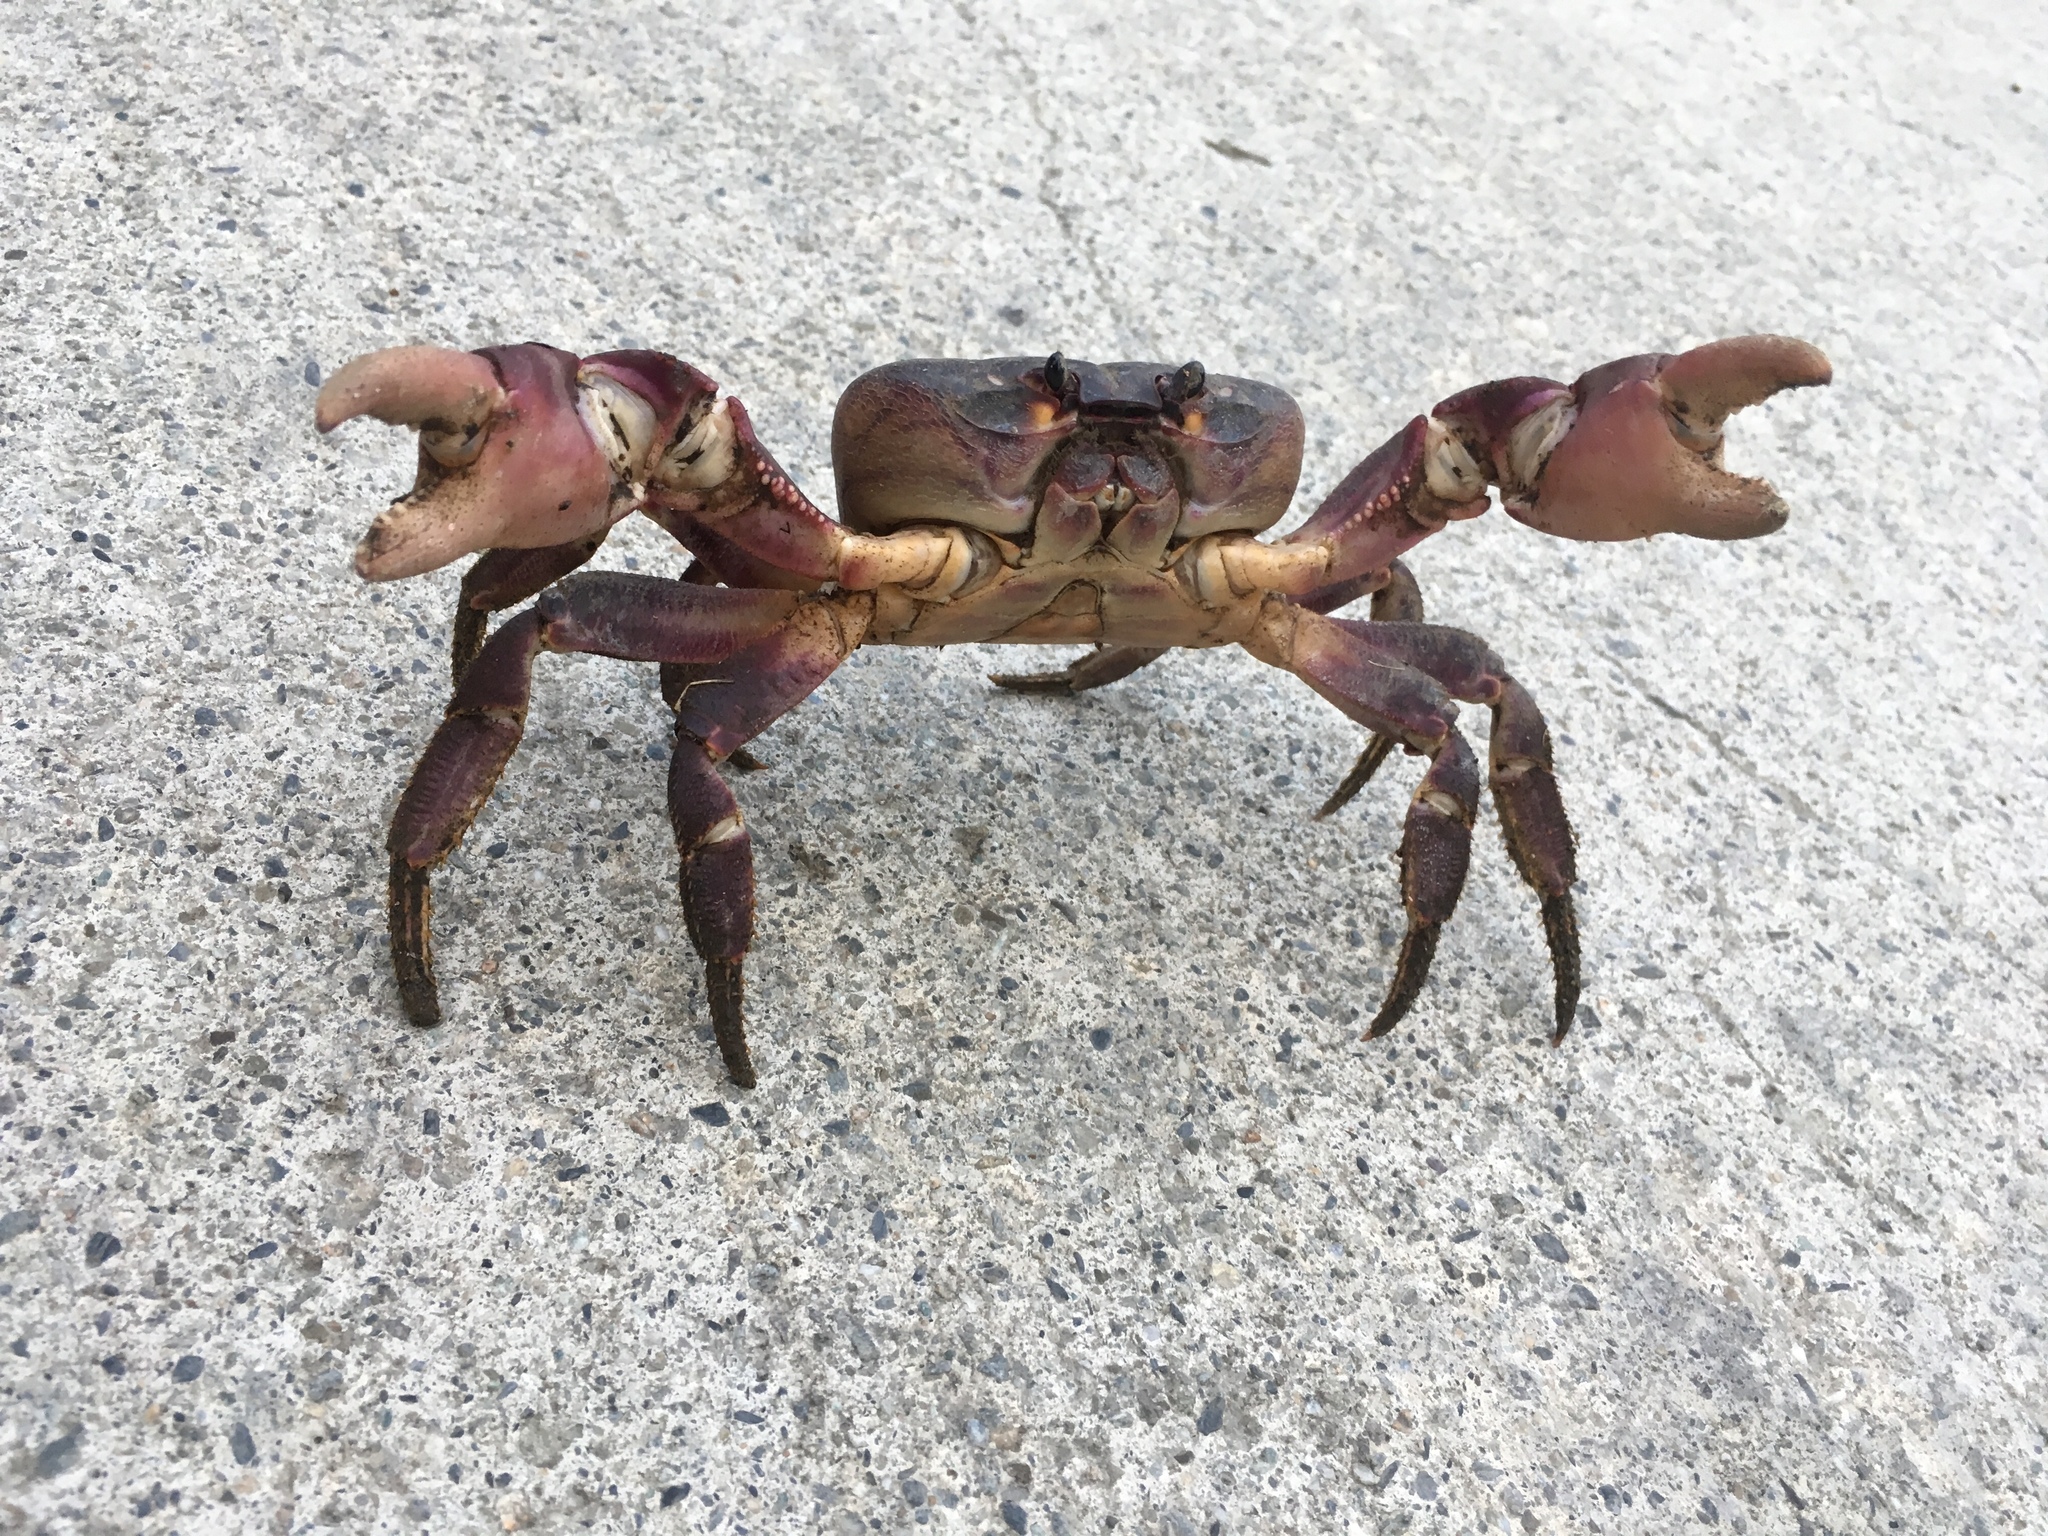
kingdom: Animalia
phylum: Arthropoda
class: Malacostraca
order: Decapoda
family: Gecarcinidae
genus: Gecarcoidea
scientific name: Gecarcoidea lalandii
